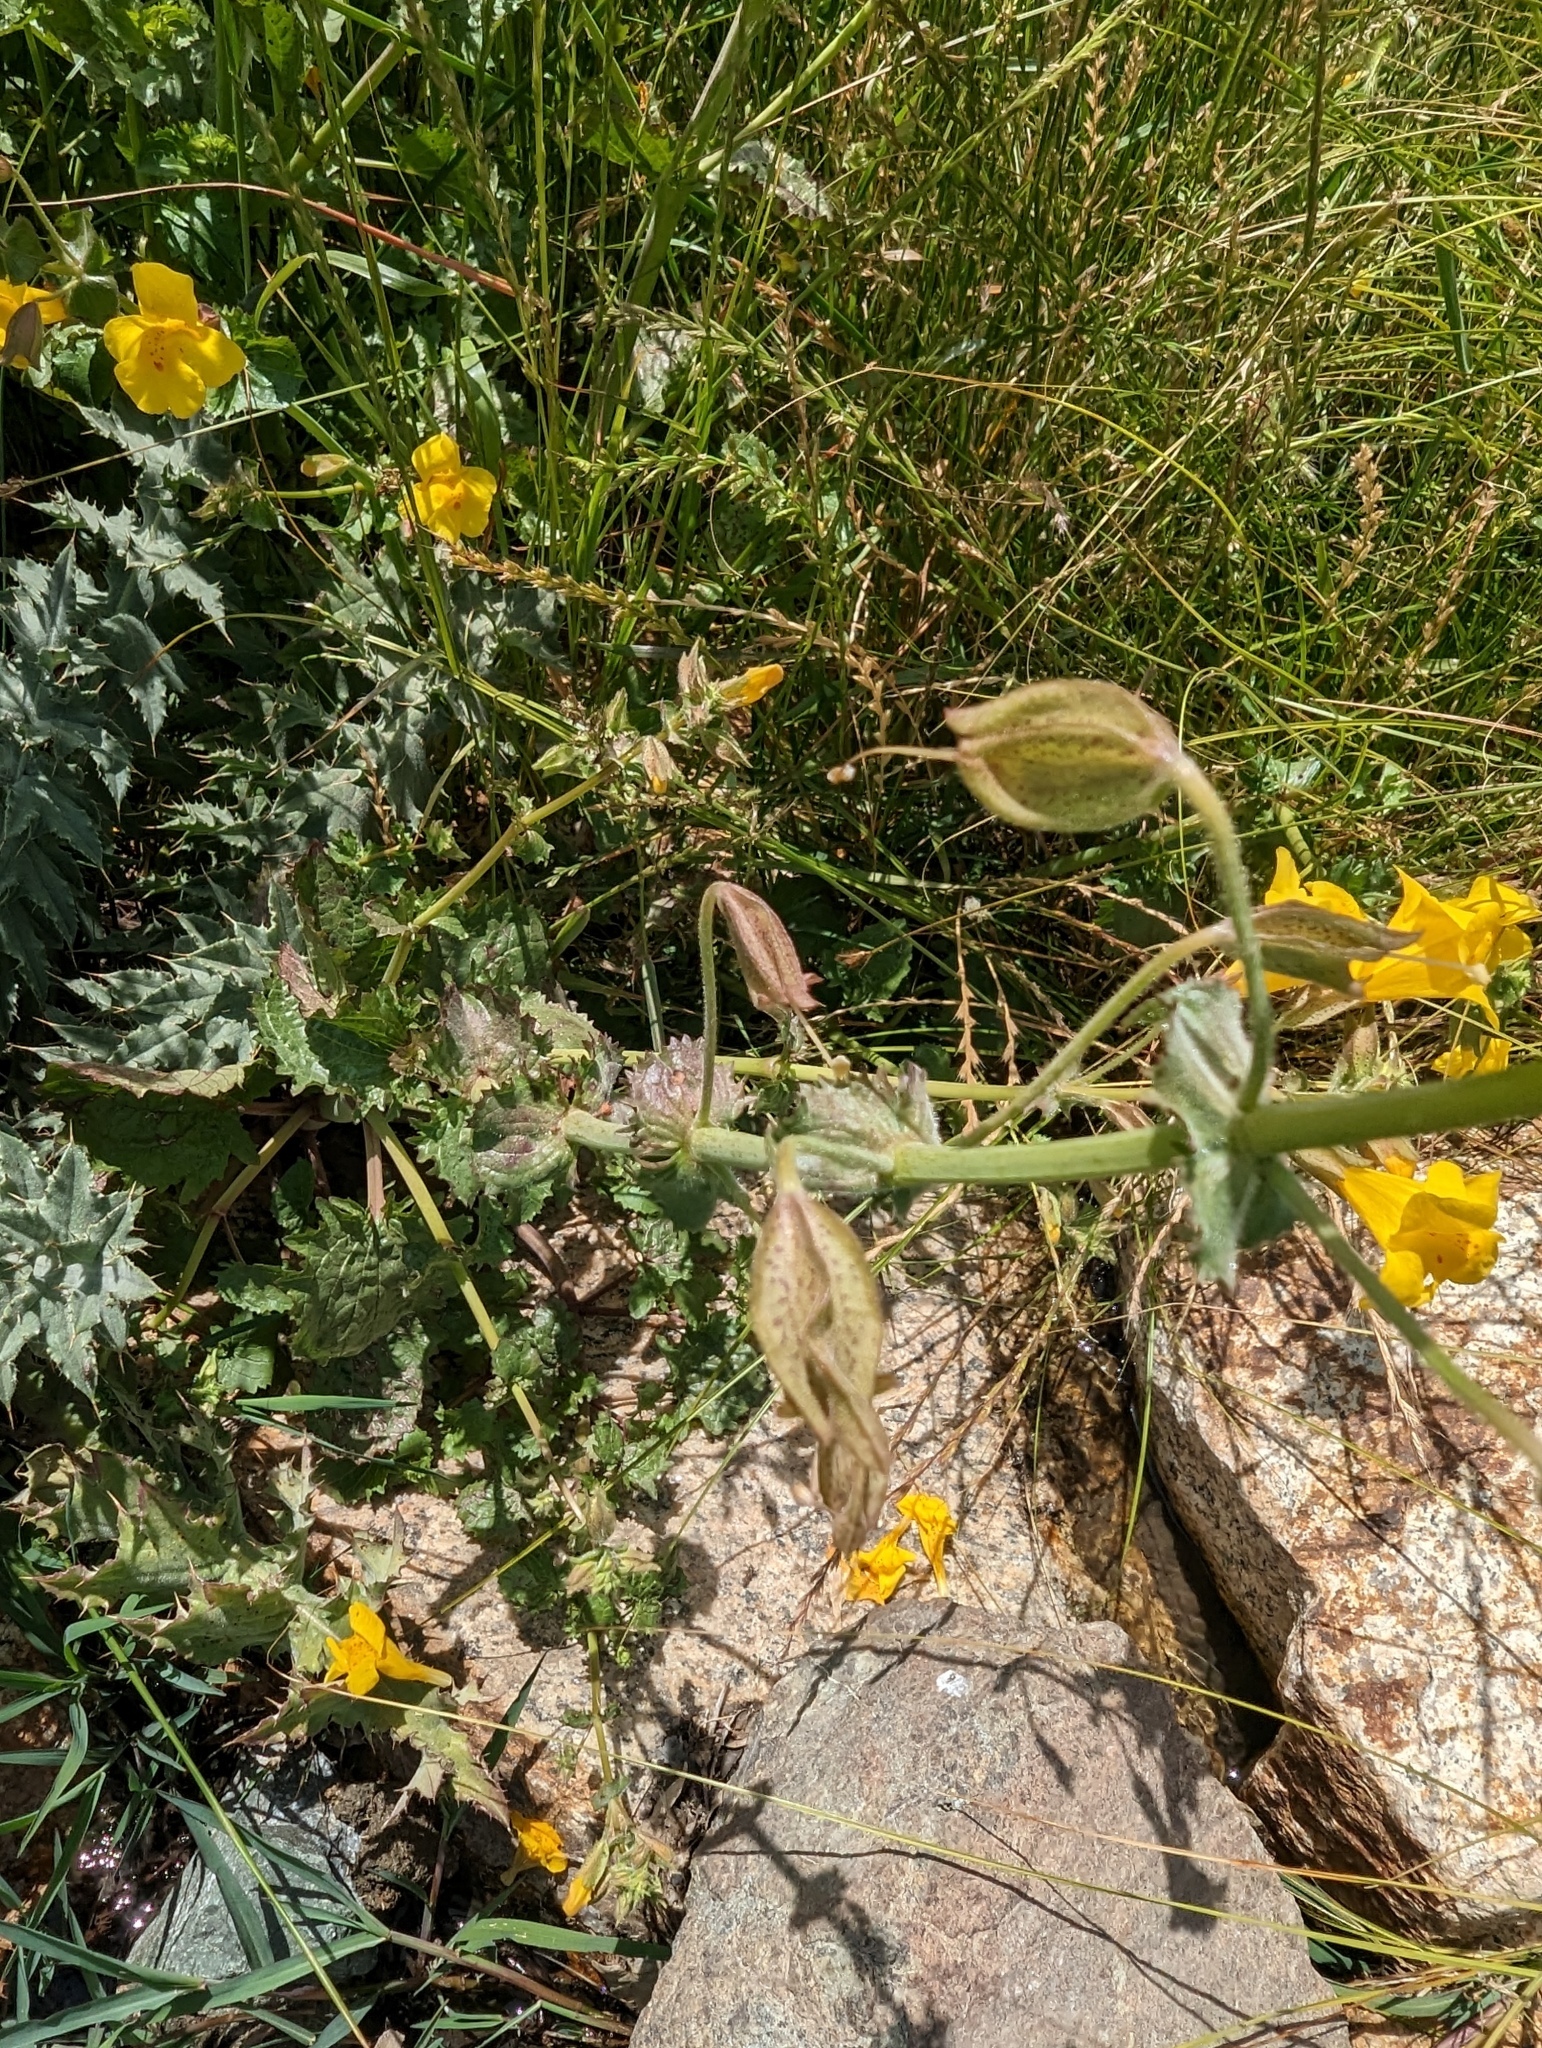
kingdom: Plantae
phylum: Tracheophyta
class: Magnoliopsida
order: Lamiales
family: Phrymaceae
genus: Erythranthe
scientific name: Erythranthe guttata
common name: Monkeyflower
